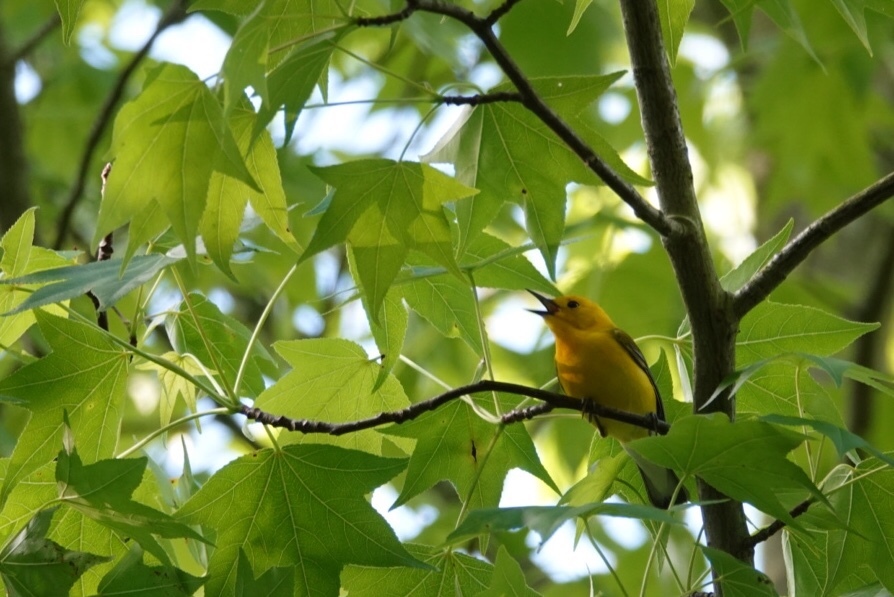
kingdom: Animalia
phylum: Chordata
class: Aves
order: Passeriformes
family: Parulidae
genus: Protonotaria
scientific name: Protonotaria citrea
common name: Prothonotary warbler
